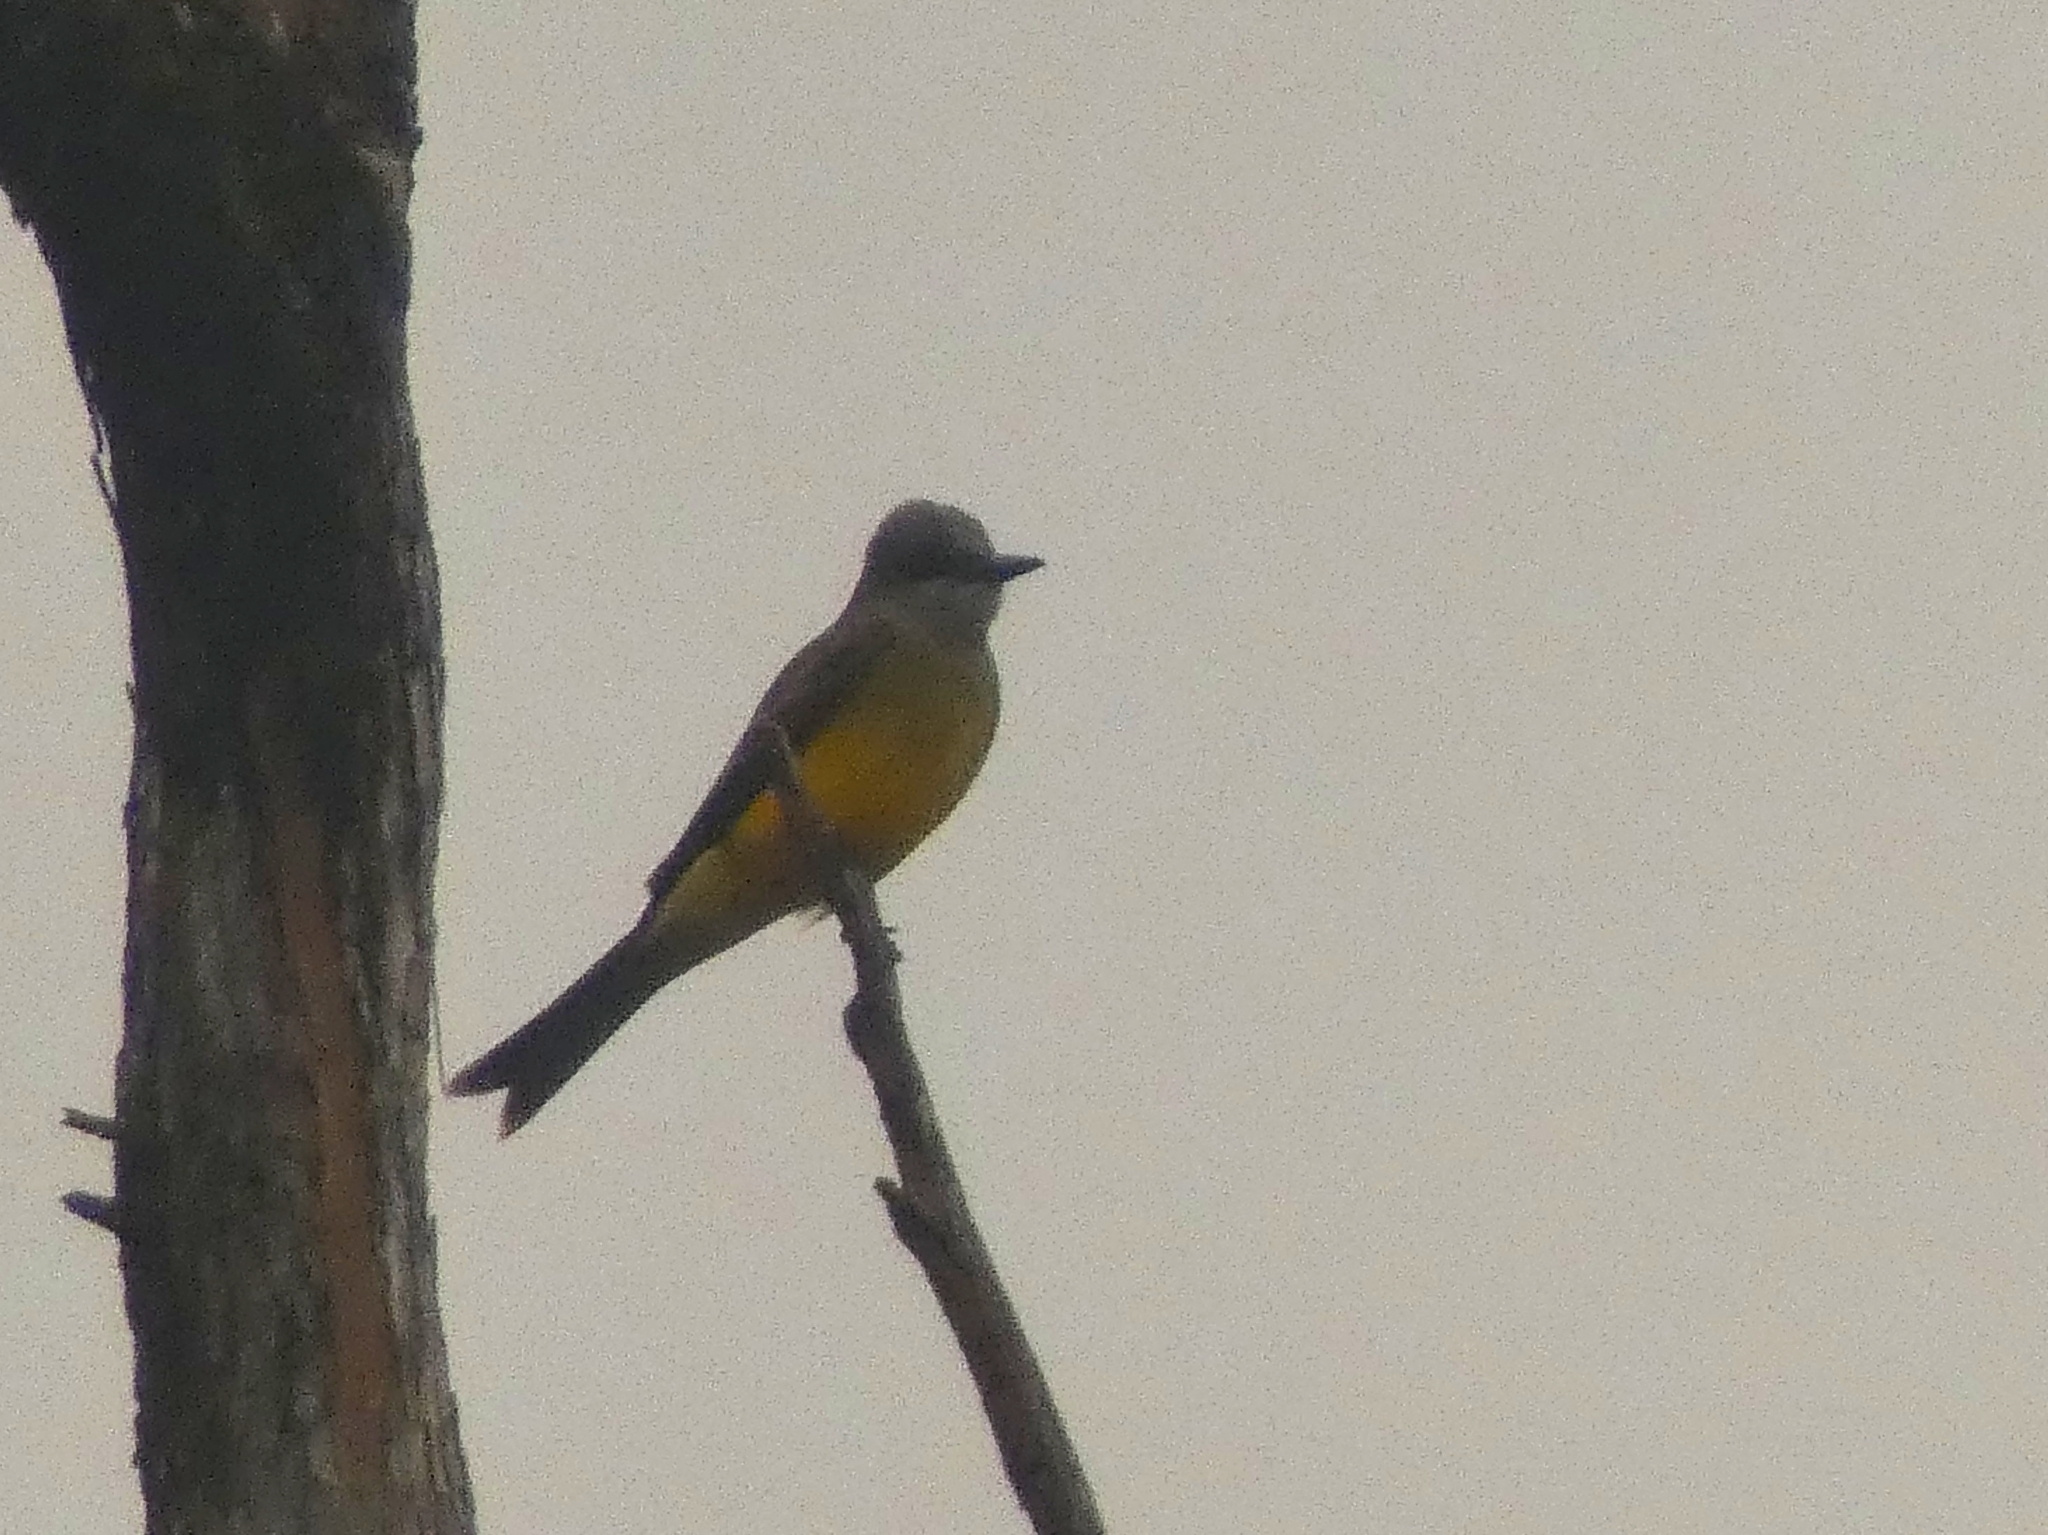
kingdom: Animalia
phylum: Chordata
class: Aves
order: Passeriformes
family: Tyrannidae
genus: Tyrannus
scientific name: Tyrannus melancholicus
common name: Tropical kingbird
